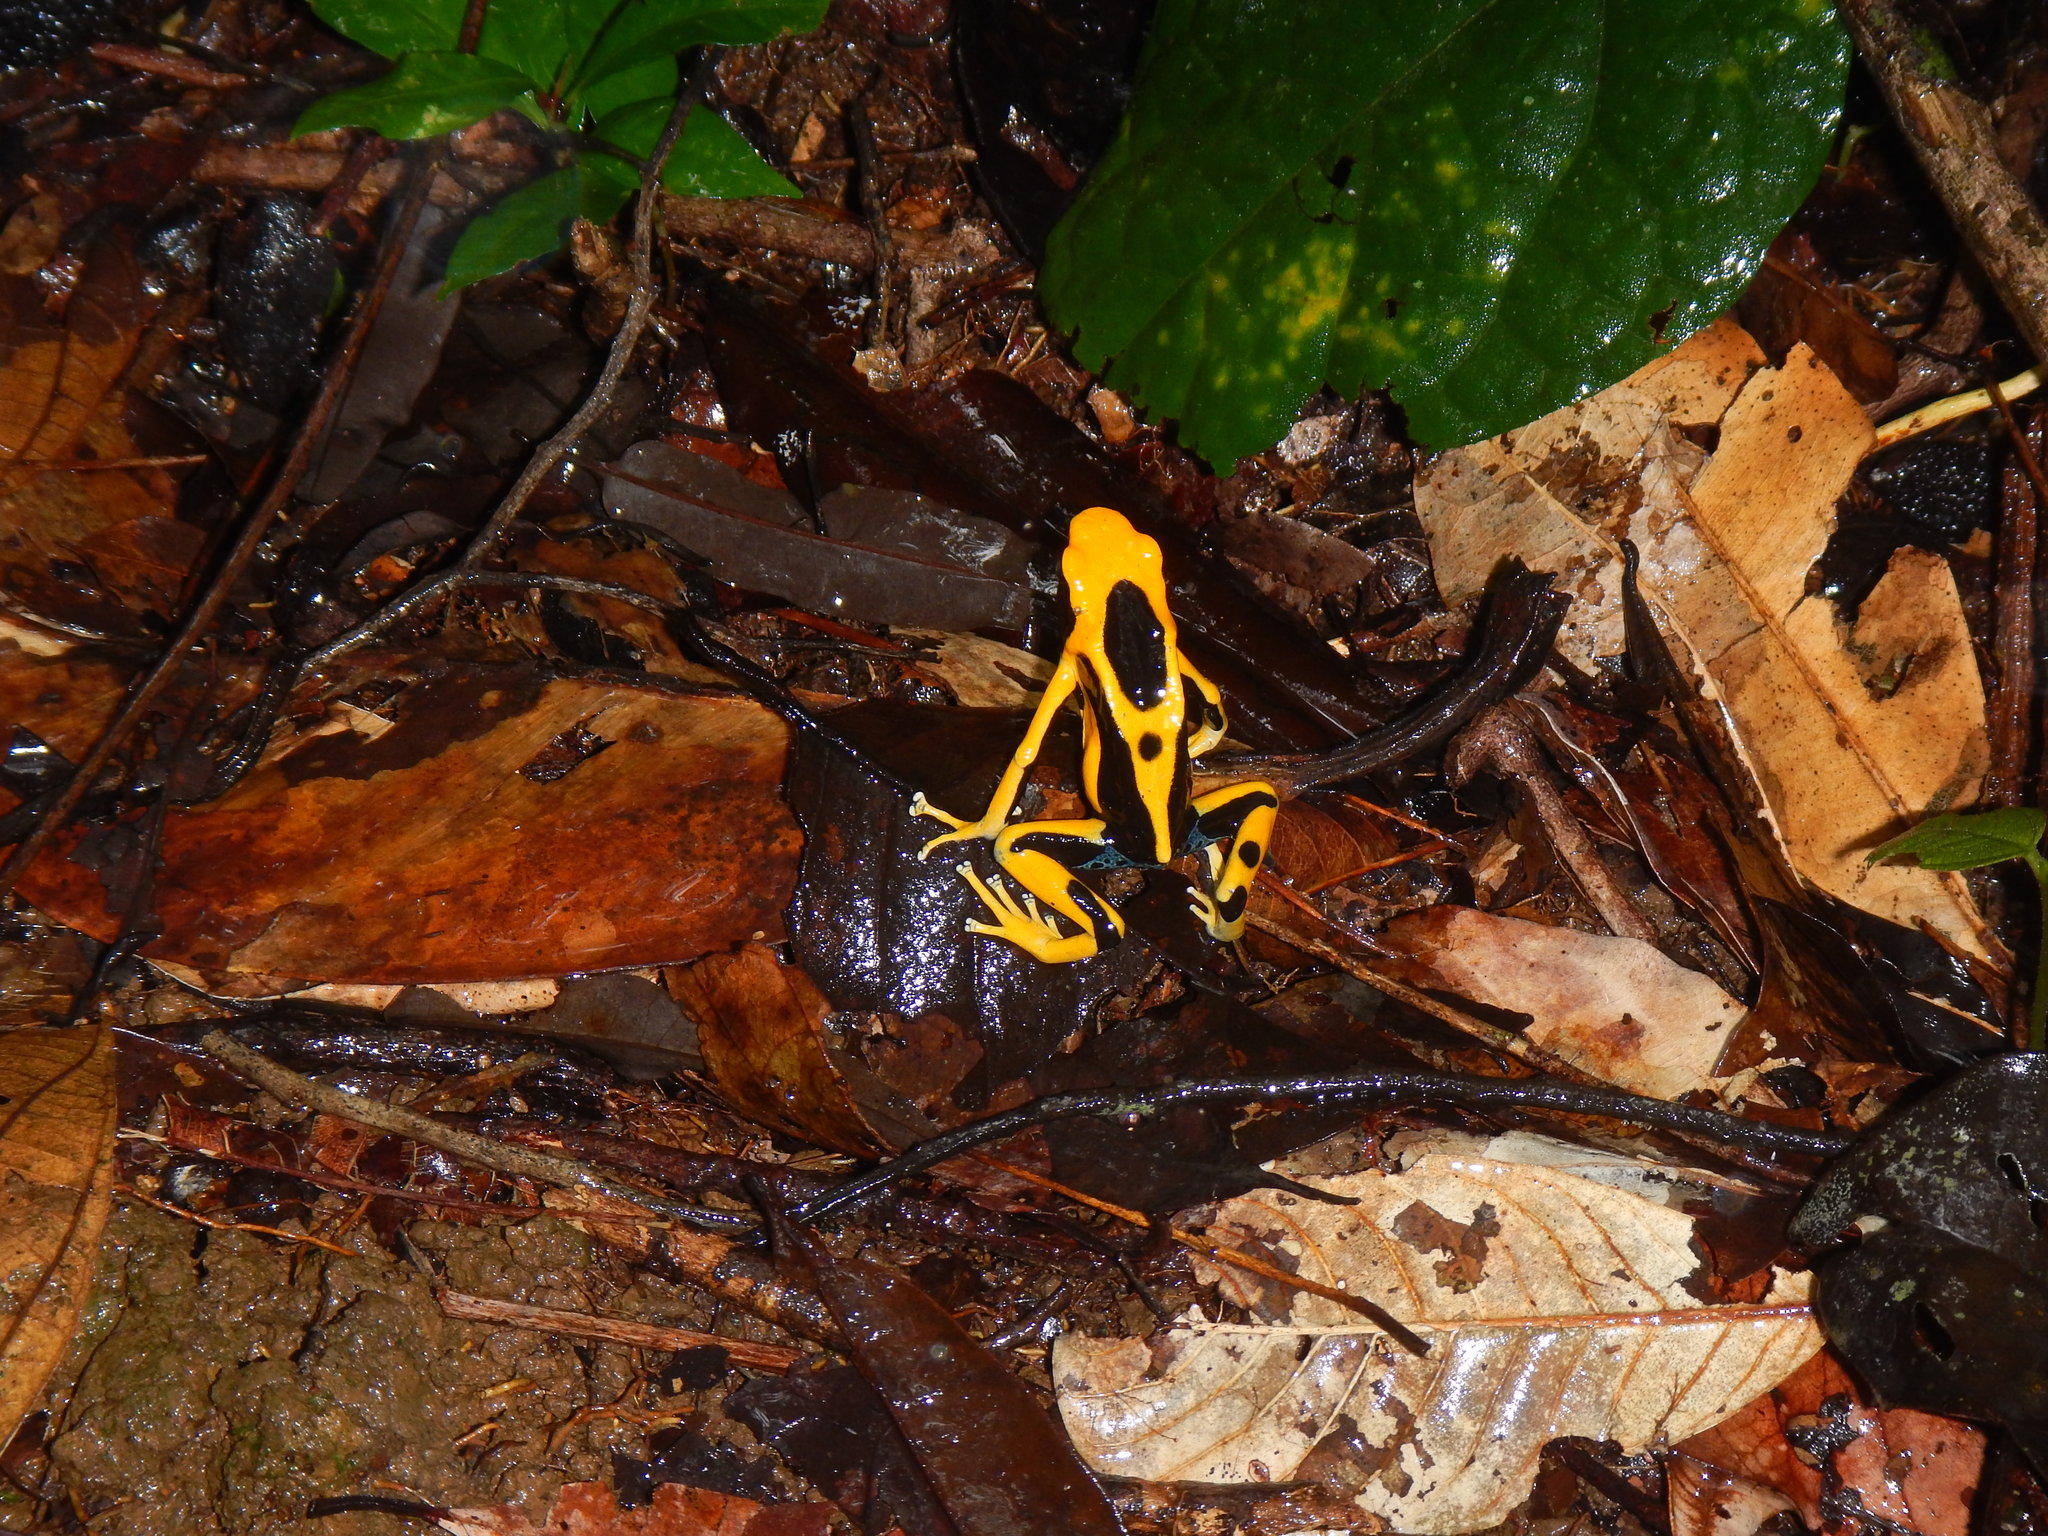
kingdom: Animalia
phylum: Chordata
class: Amphibia
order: Anura
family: Dendrobatidae
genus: Dendrobates
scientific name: Dendrobates tinctorius
